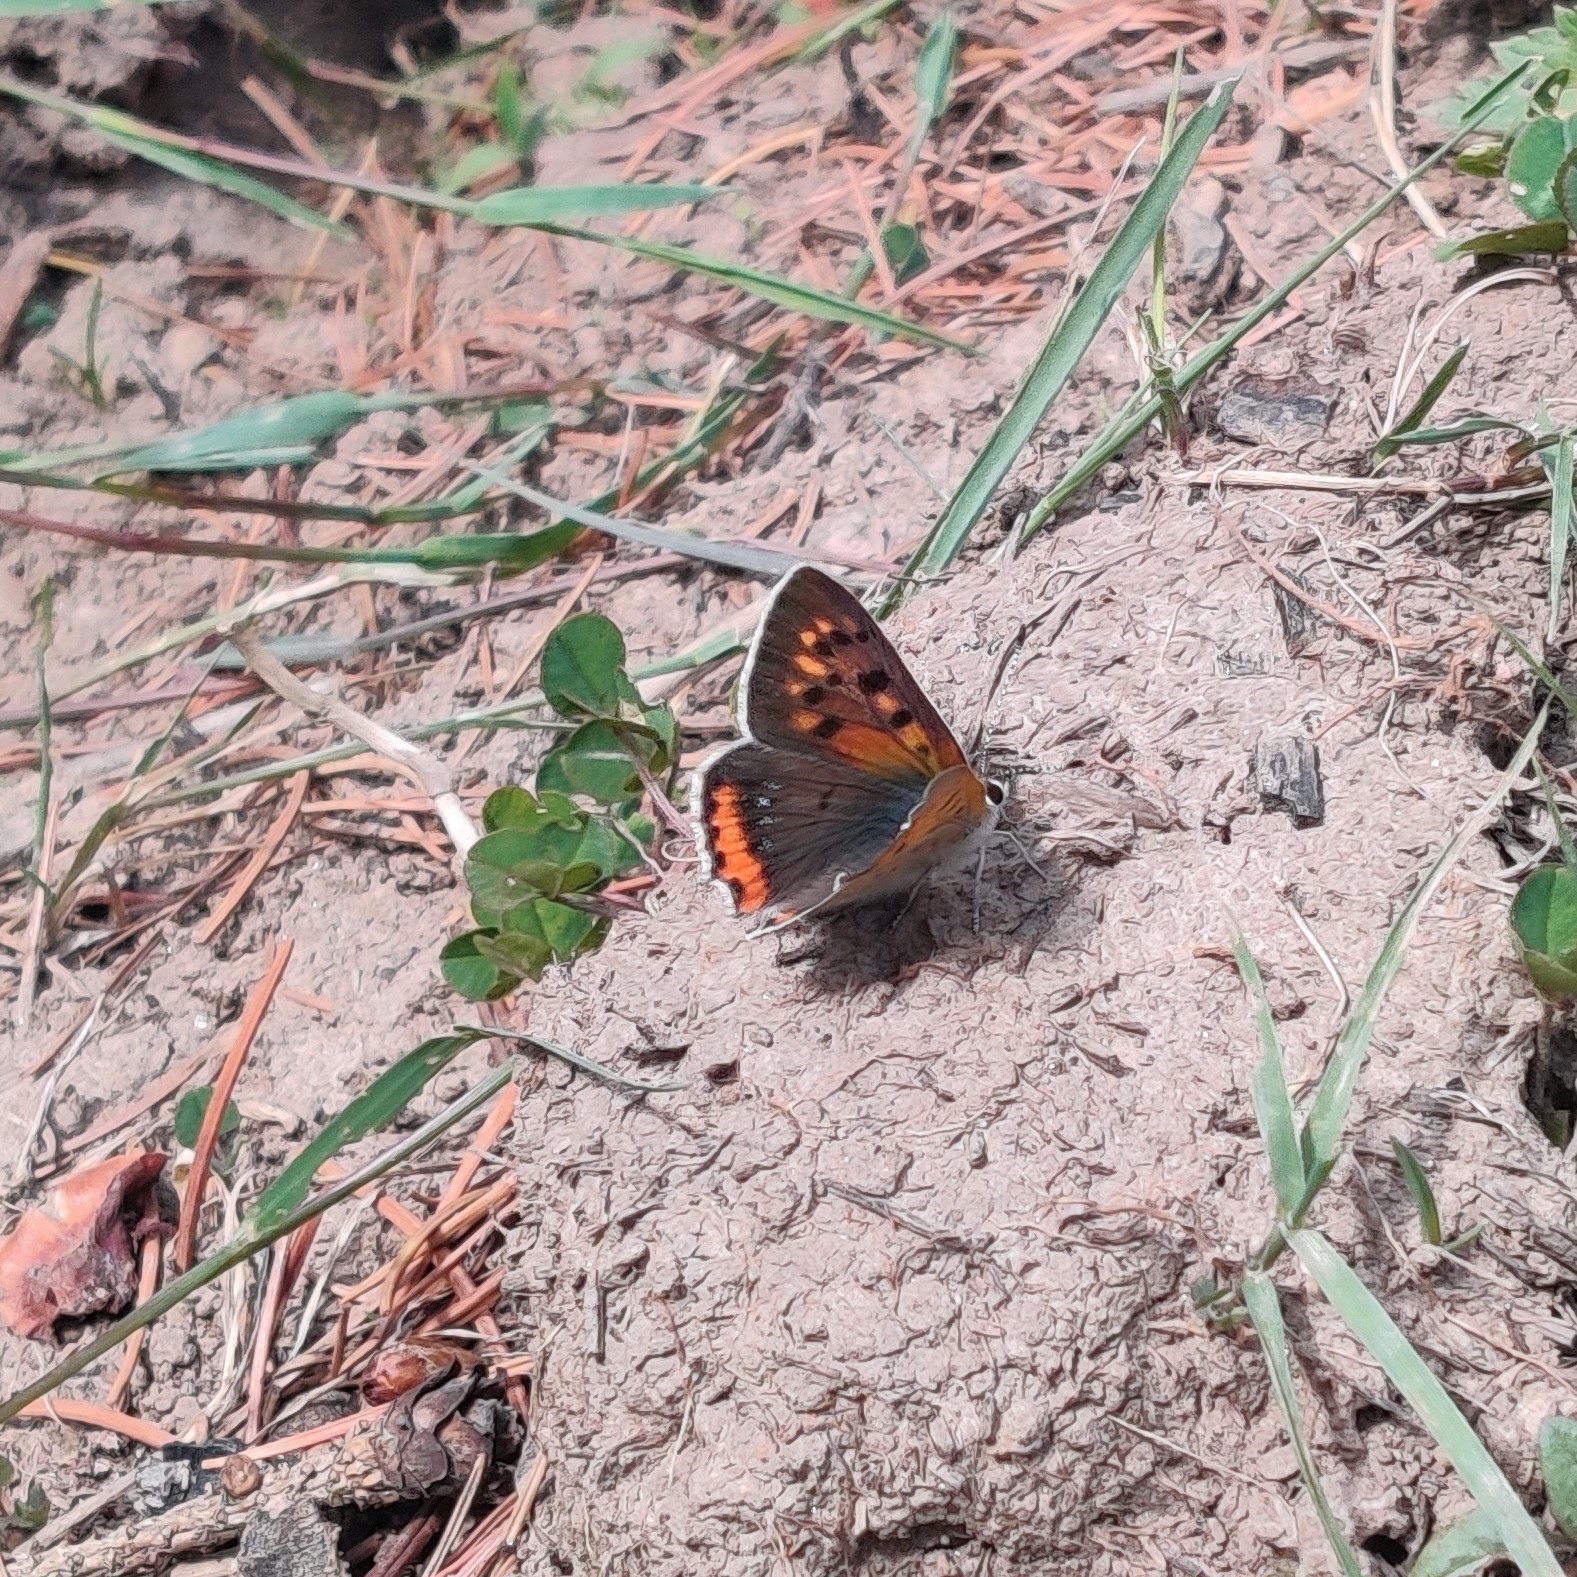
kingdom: Animalia
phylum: Arthropoda
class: Insecta
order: Lepidoptera
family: Lycaenidae
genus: Lycaena
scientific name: Lycaena phlaeas
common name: Small copper
